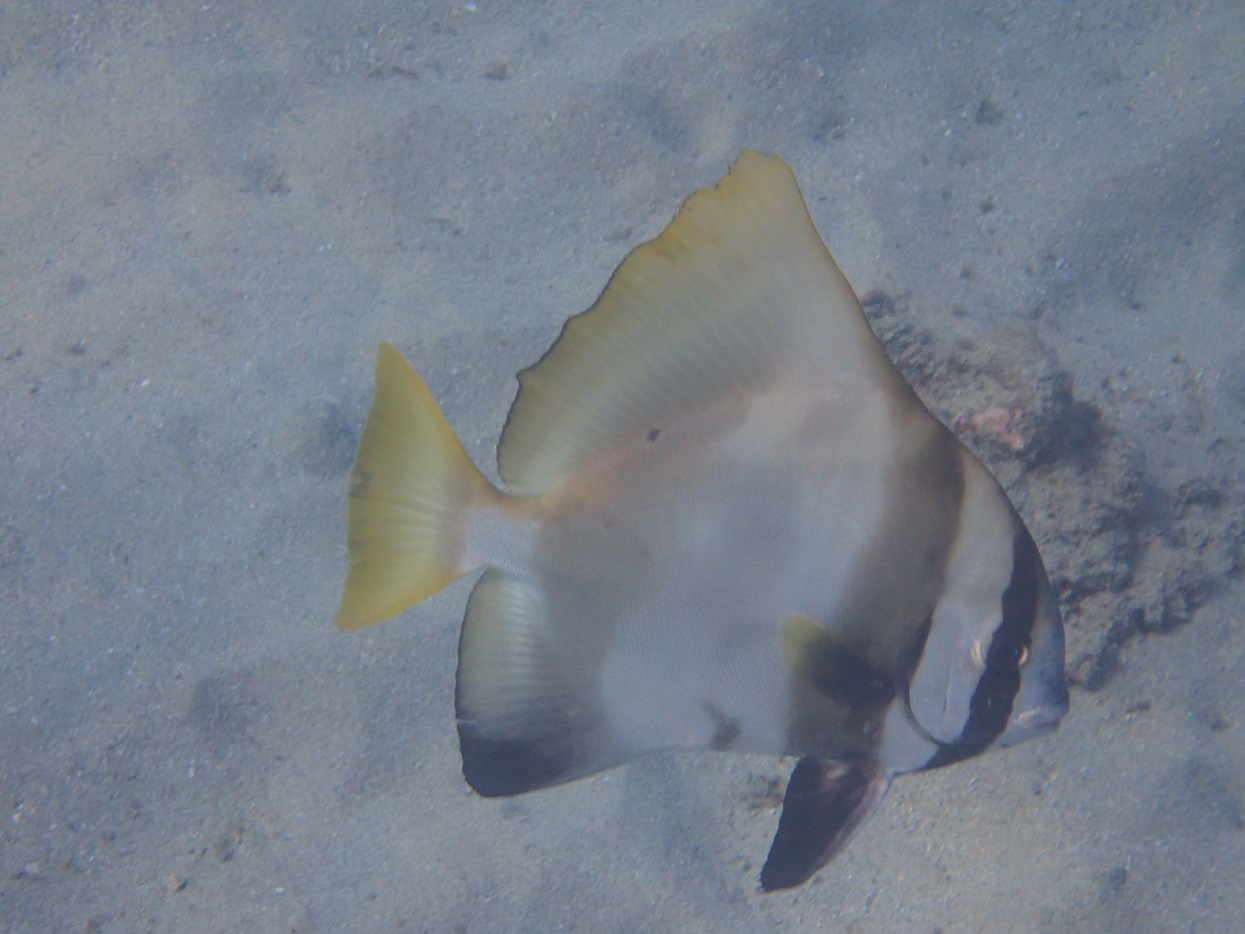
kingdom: Animalia
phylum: Chordata
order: Perciformes
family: Ephippidae
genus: Platax
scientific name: Platax batavianus
